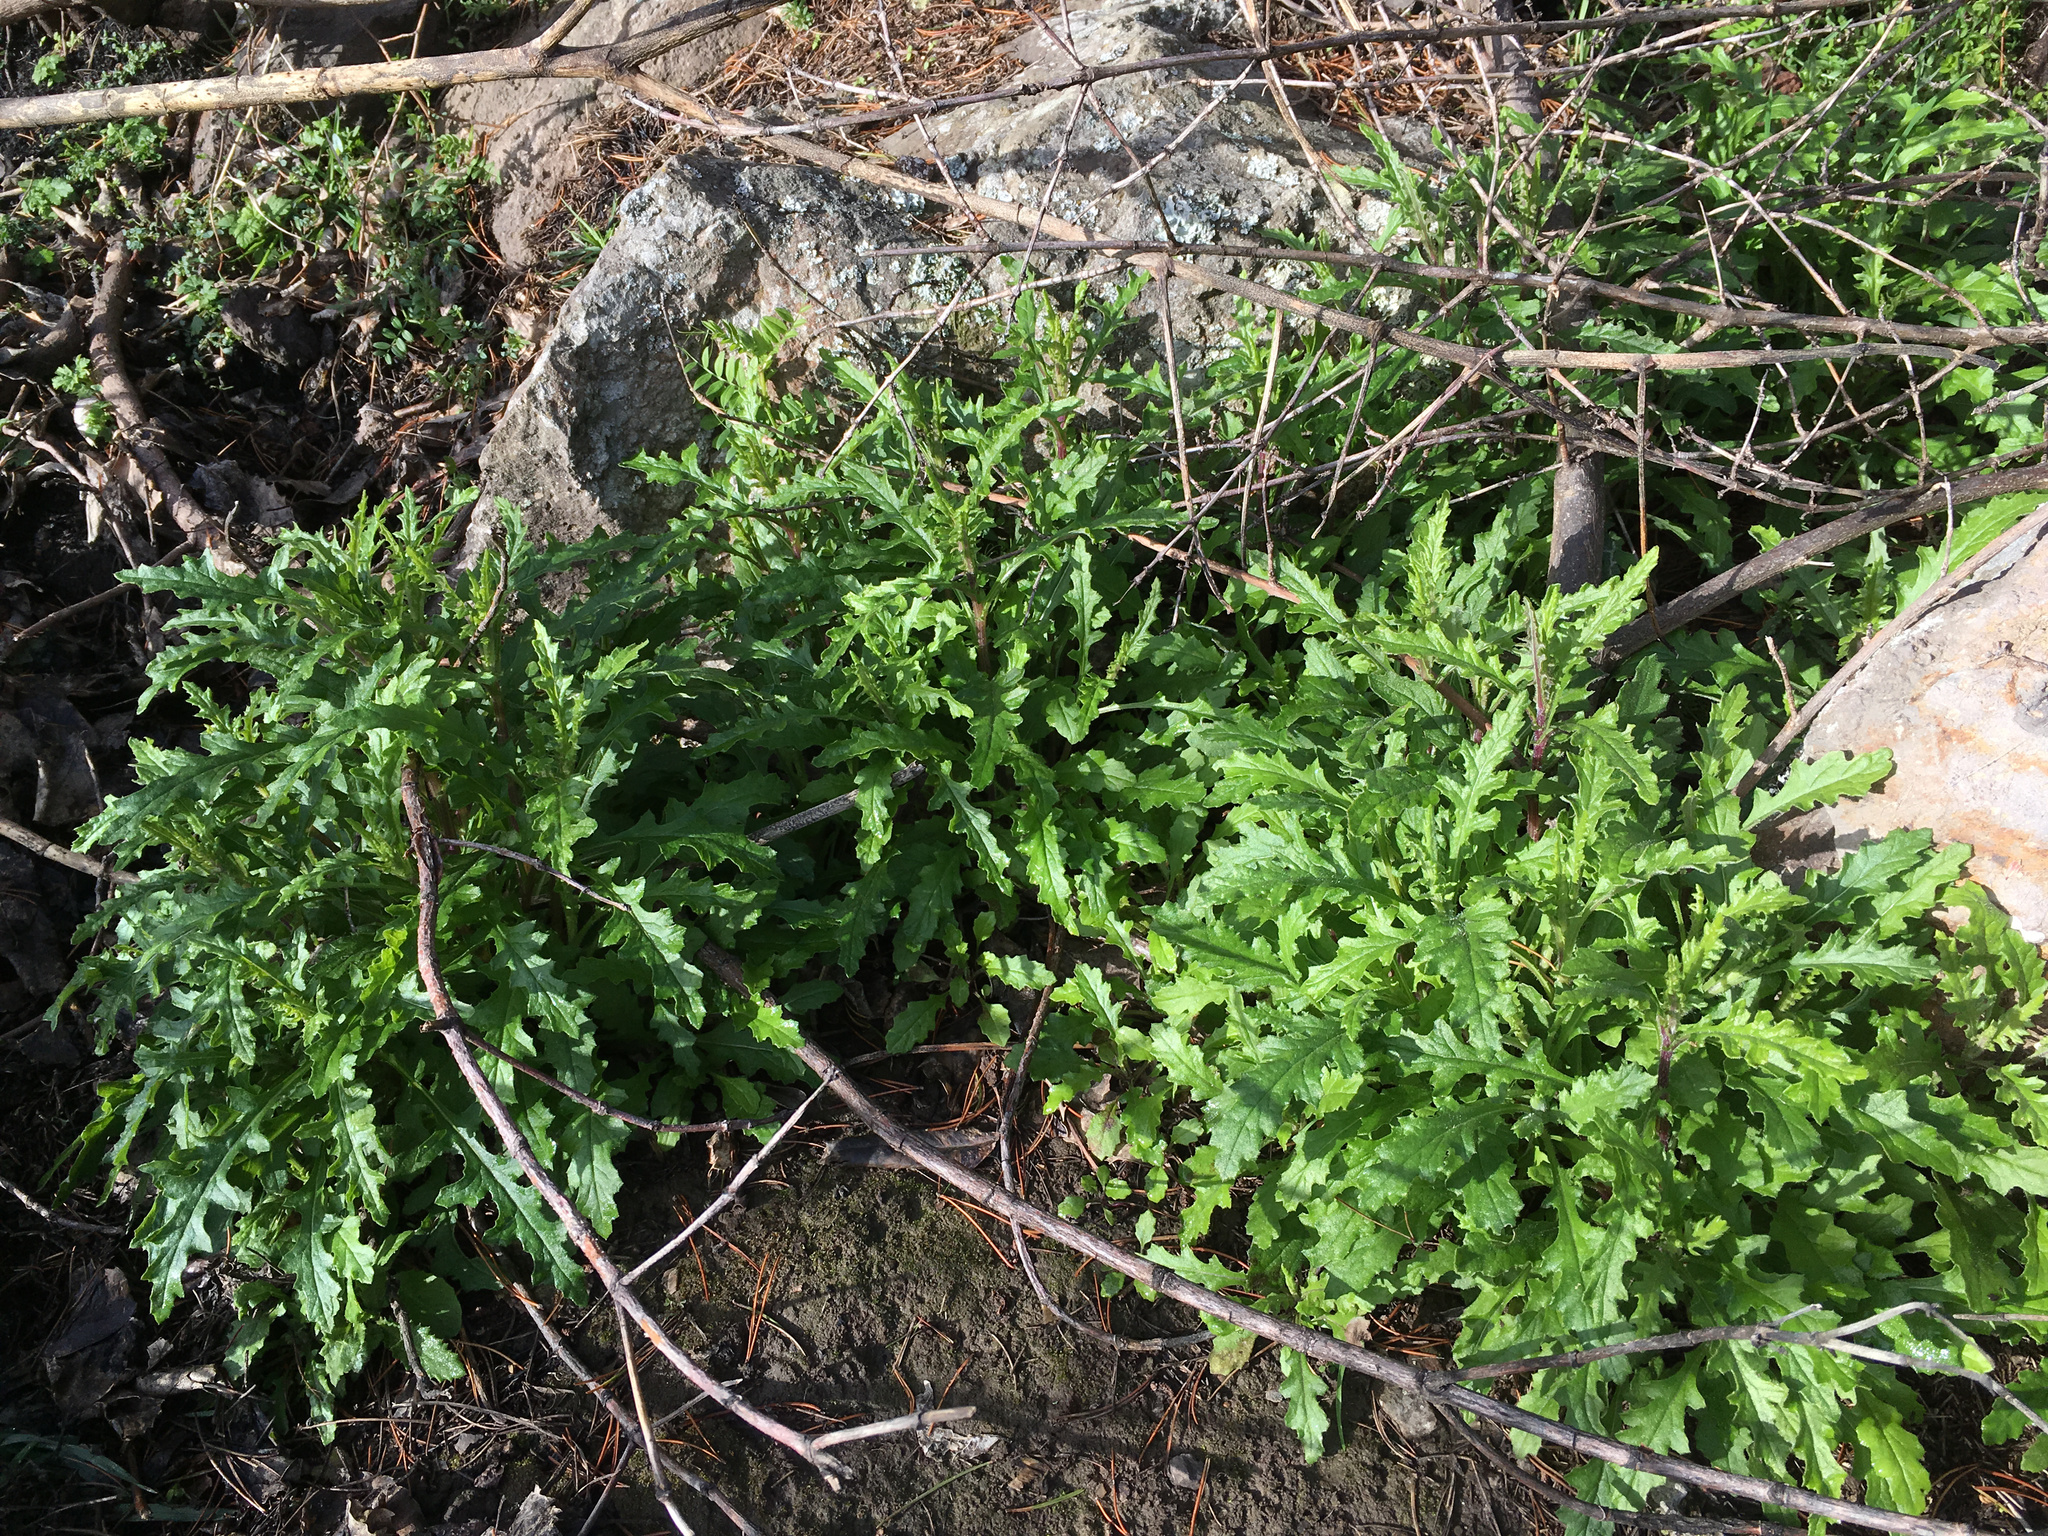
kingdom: Plantae
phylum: Tracheophyta
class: Magnoliopsida
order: Asterales
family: Asteraceae
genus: Senecio
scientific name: Senecio hispidulus
